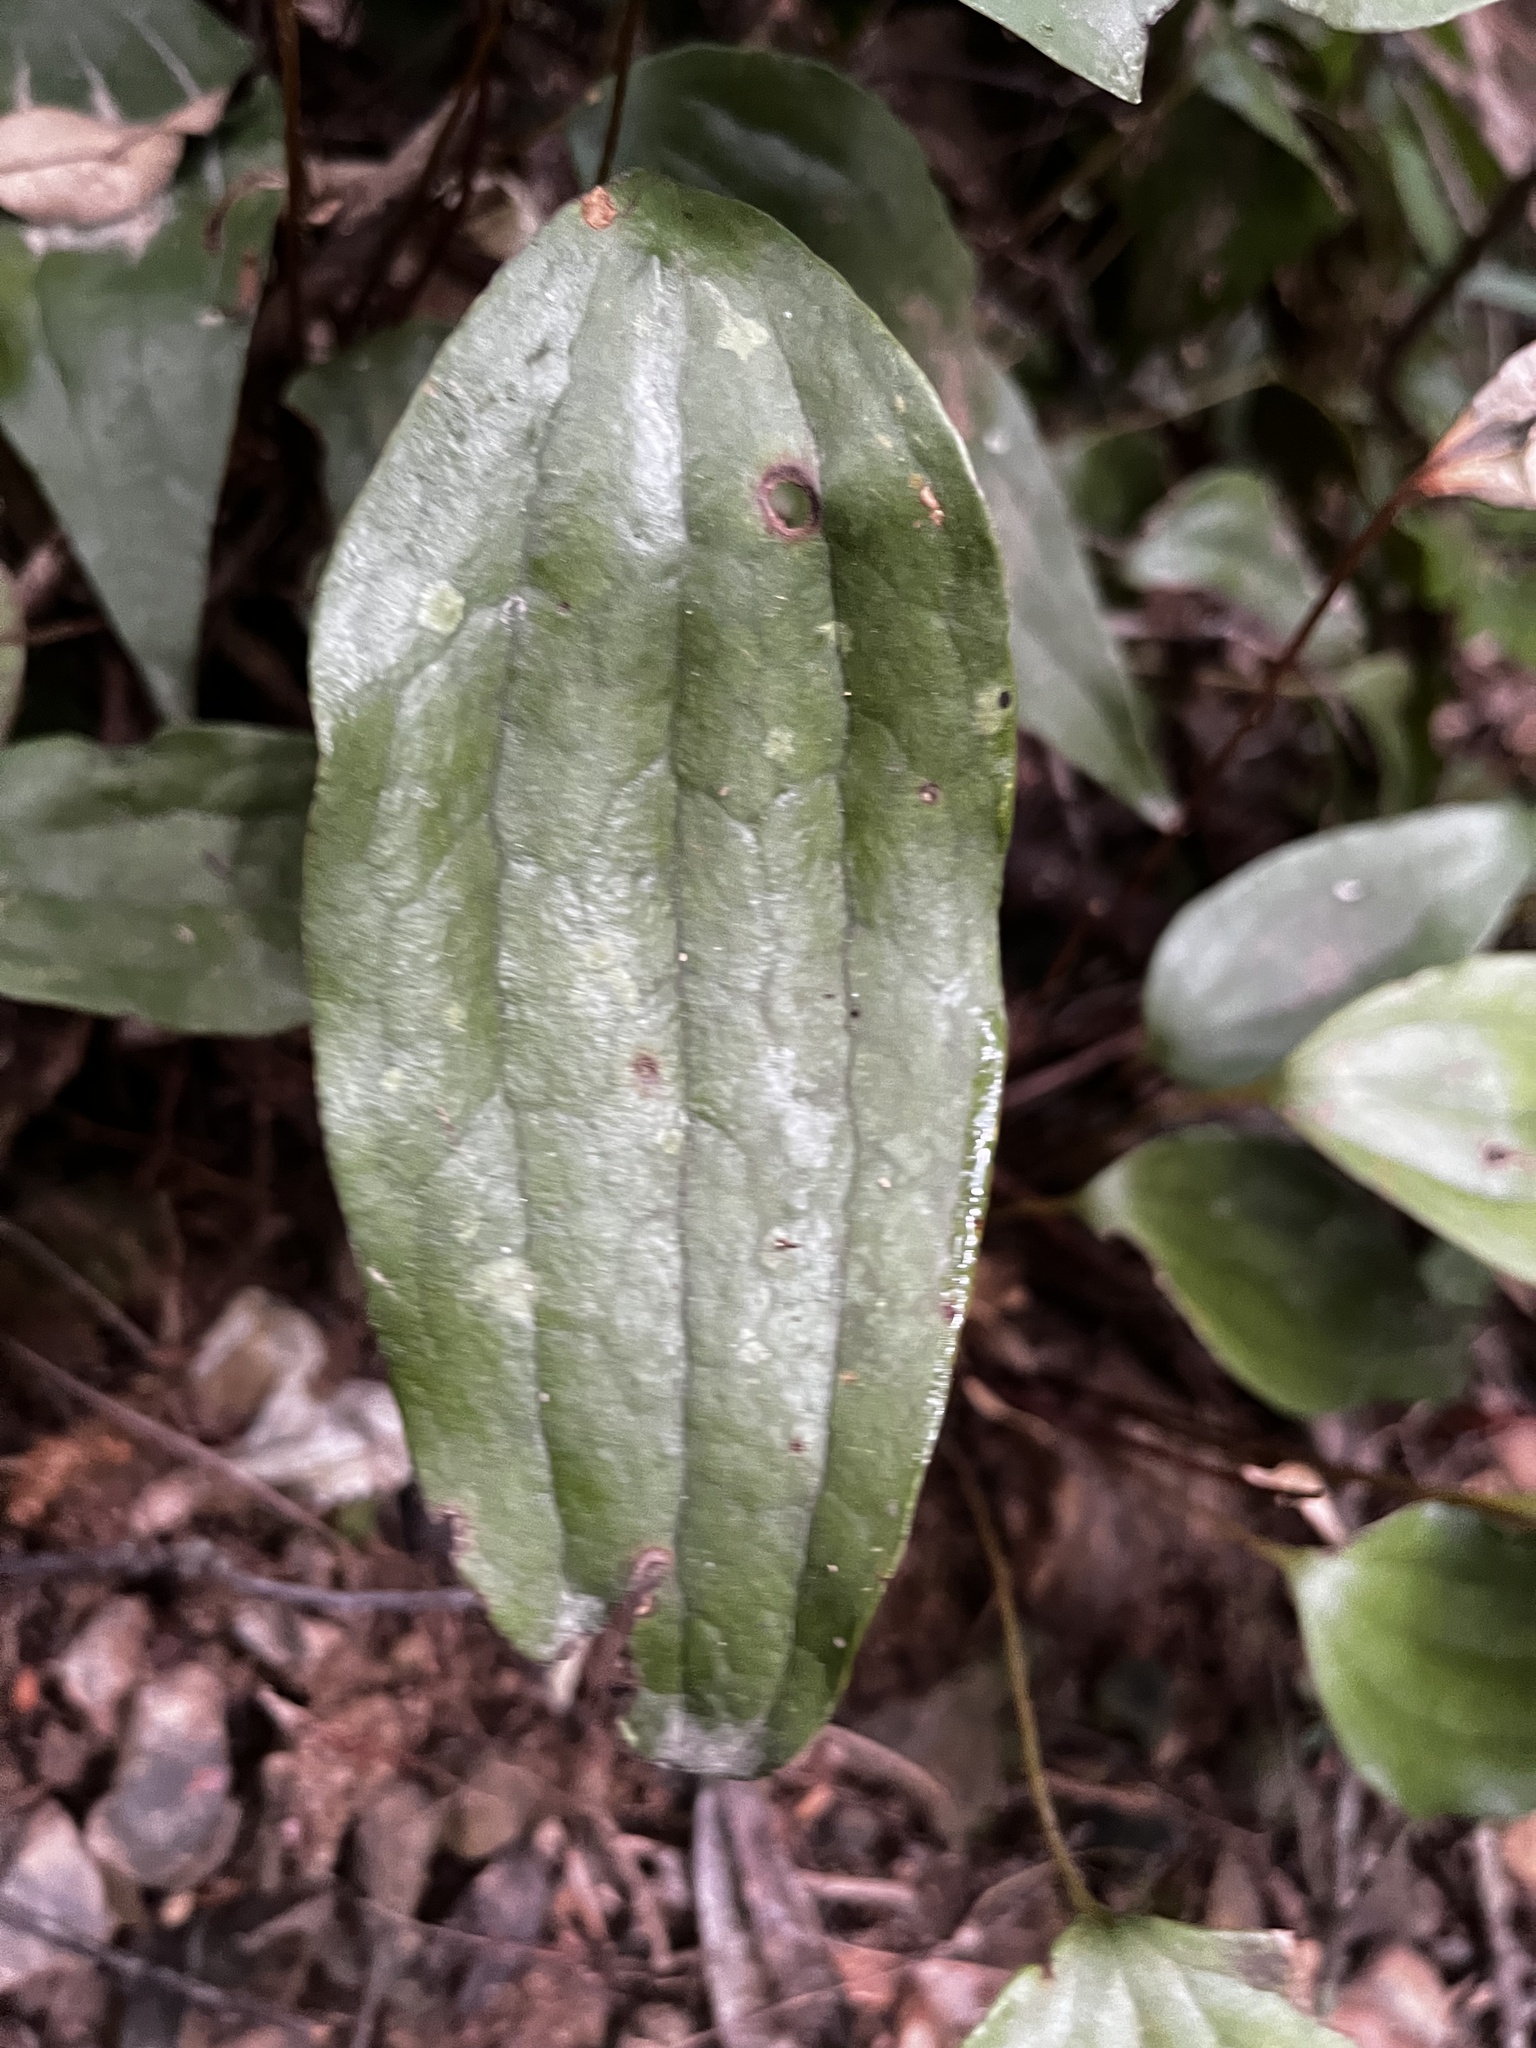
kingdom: Plantae
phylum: Tracheophyta
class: Polypodiopsida
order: Gleicheniales
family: Dipteridaceae
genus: Cheiropleuria
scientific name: Cheiropleuria integrifolia
